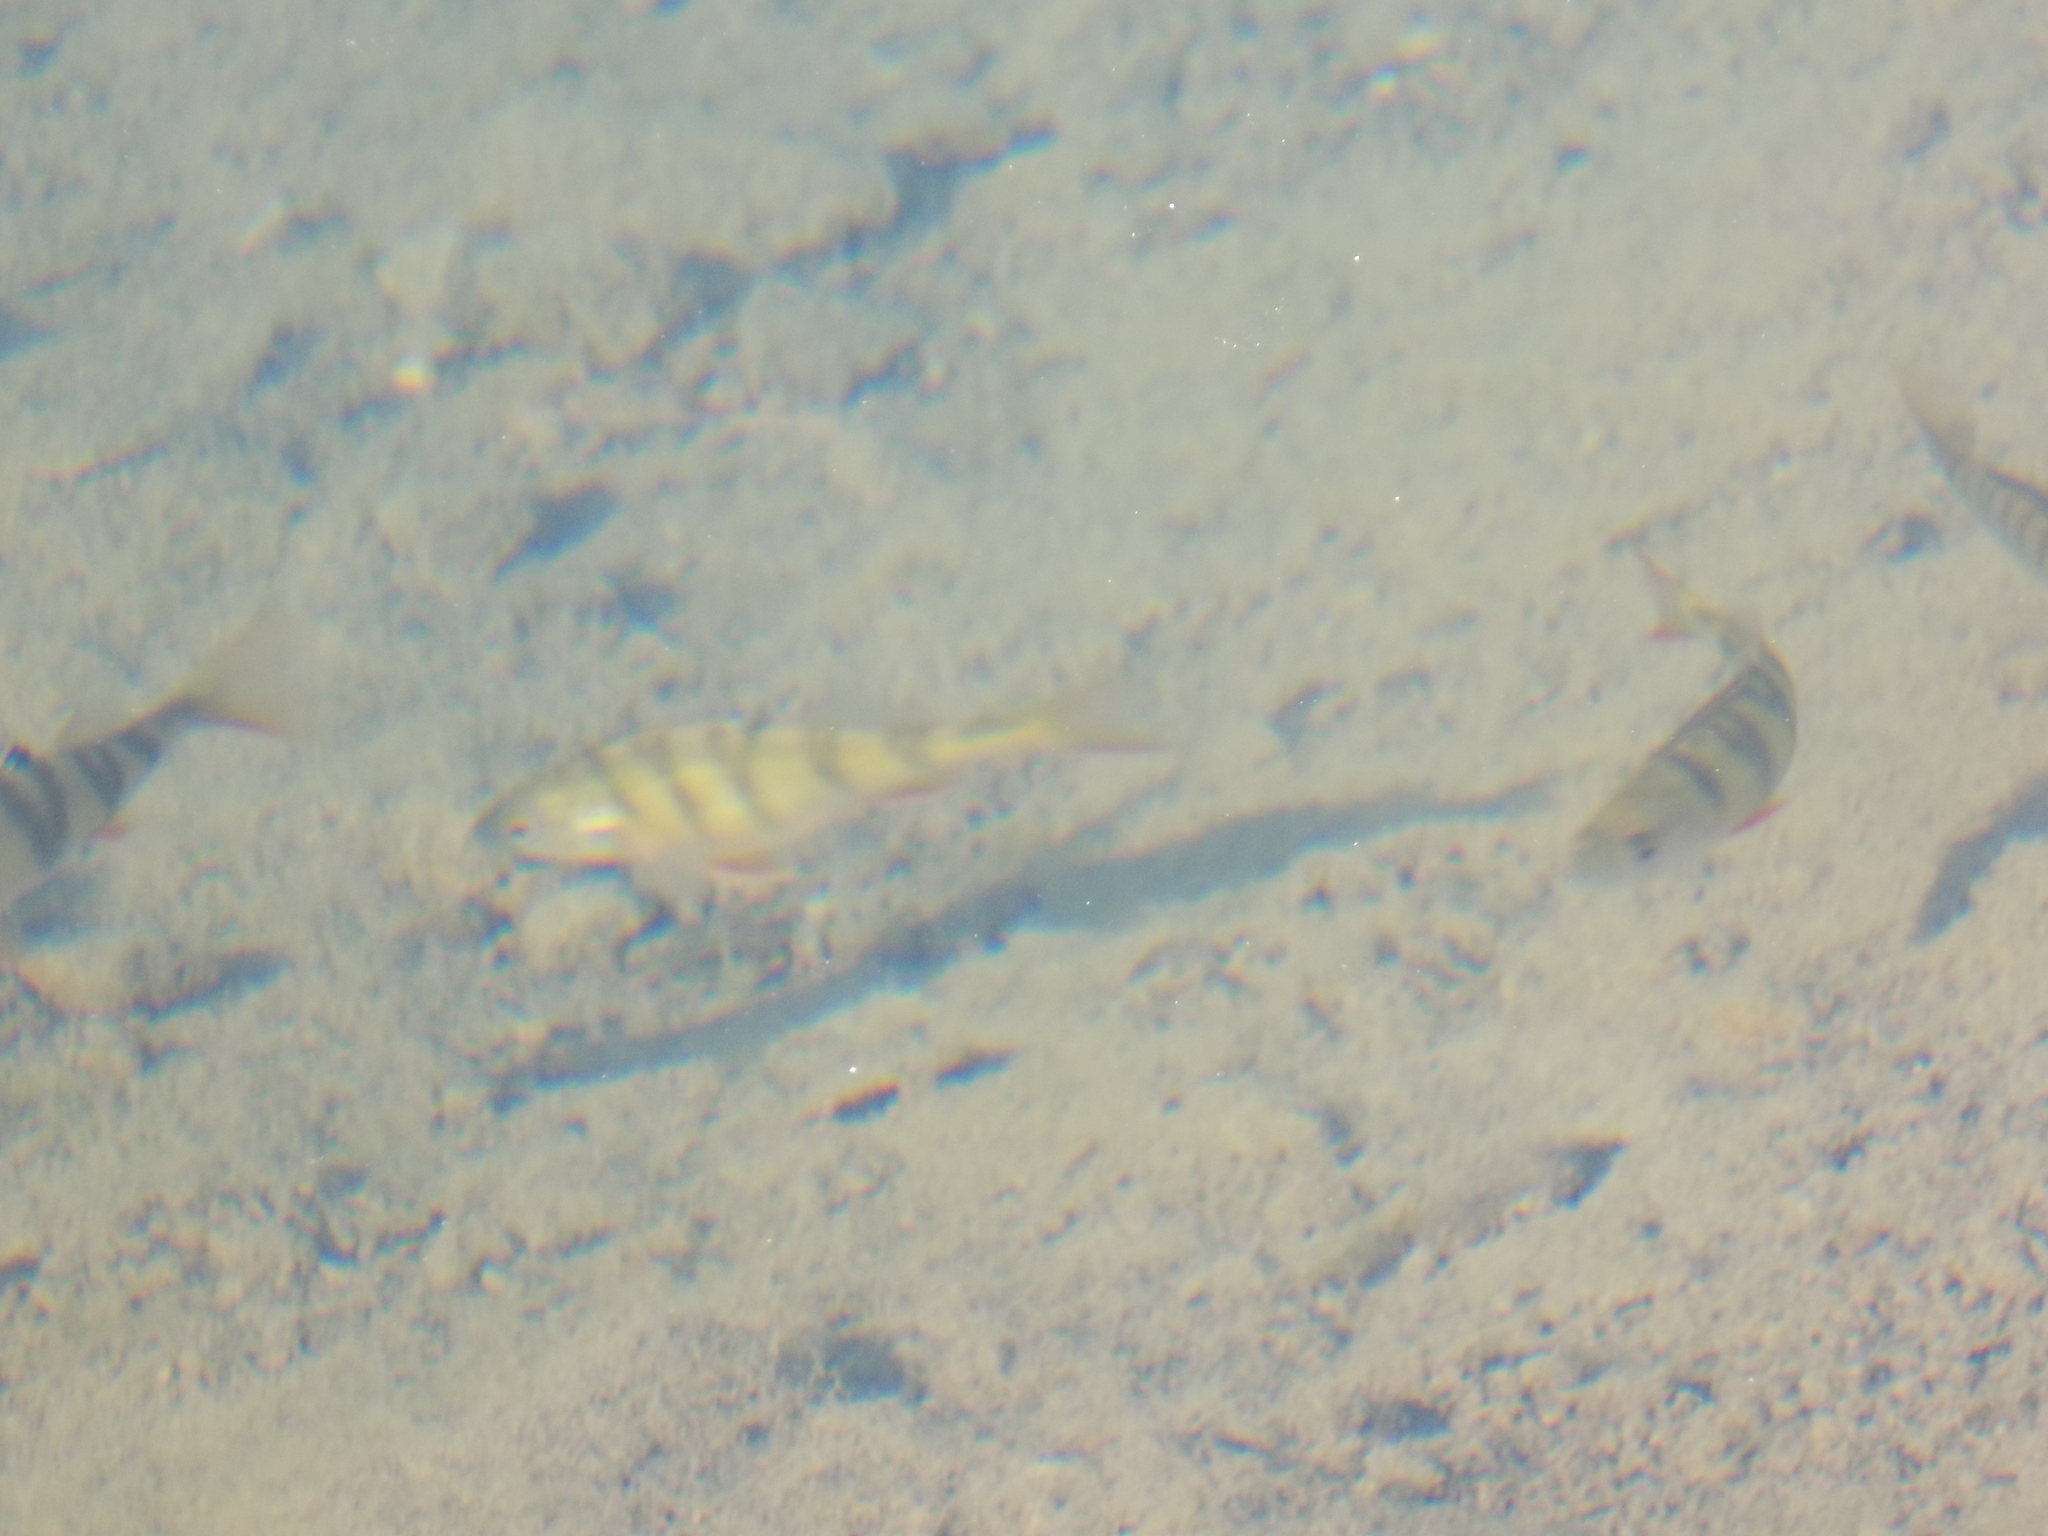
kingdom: Animalia
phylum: Chordata
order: Perciformes
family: Percidae
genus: Perca
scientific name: Perca fluviatilis
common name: Perch
